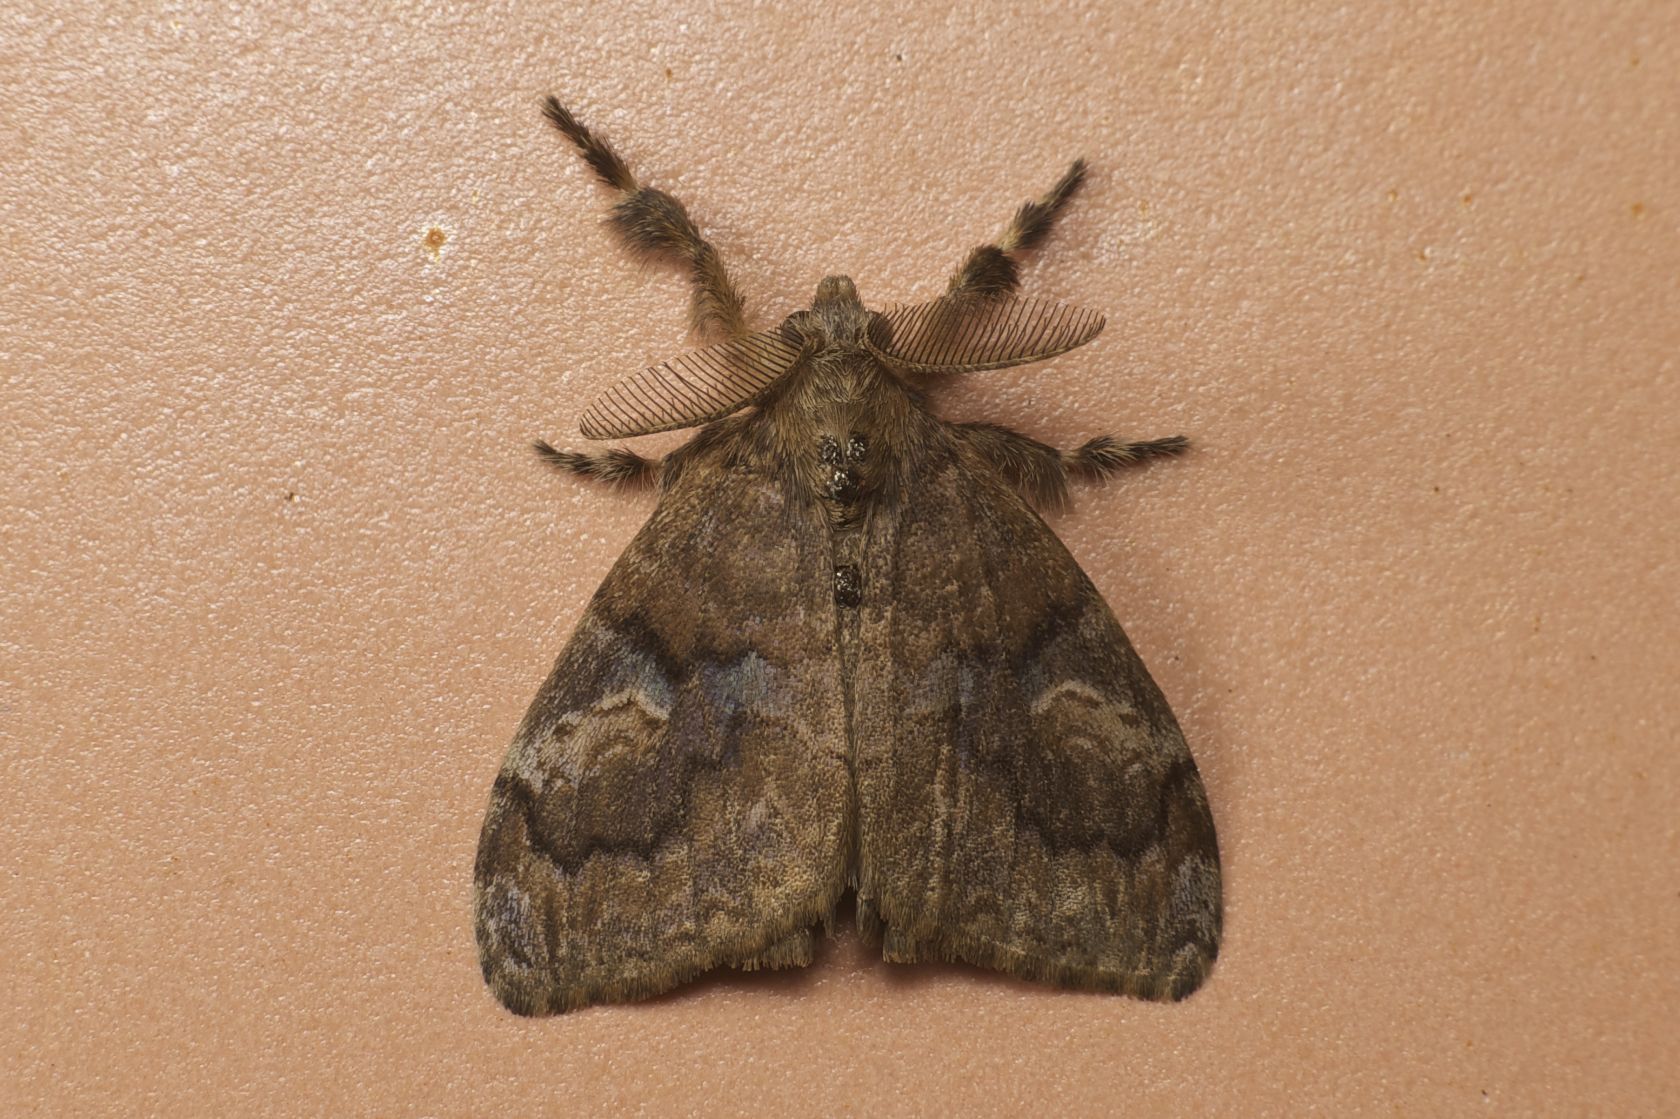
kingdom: Animalia
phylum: Arthropoda
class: Insecta
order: Lepidoptera
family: Erebidae
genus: Orgyia
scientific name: Orgyia postica
